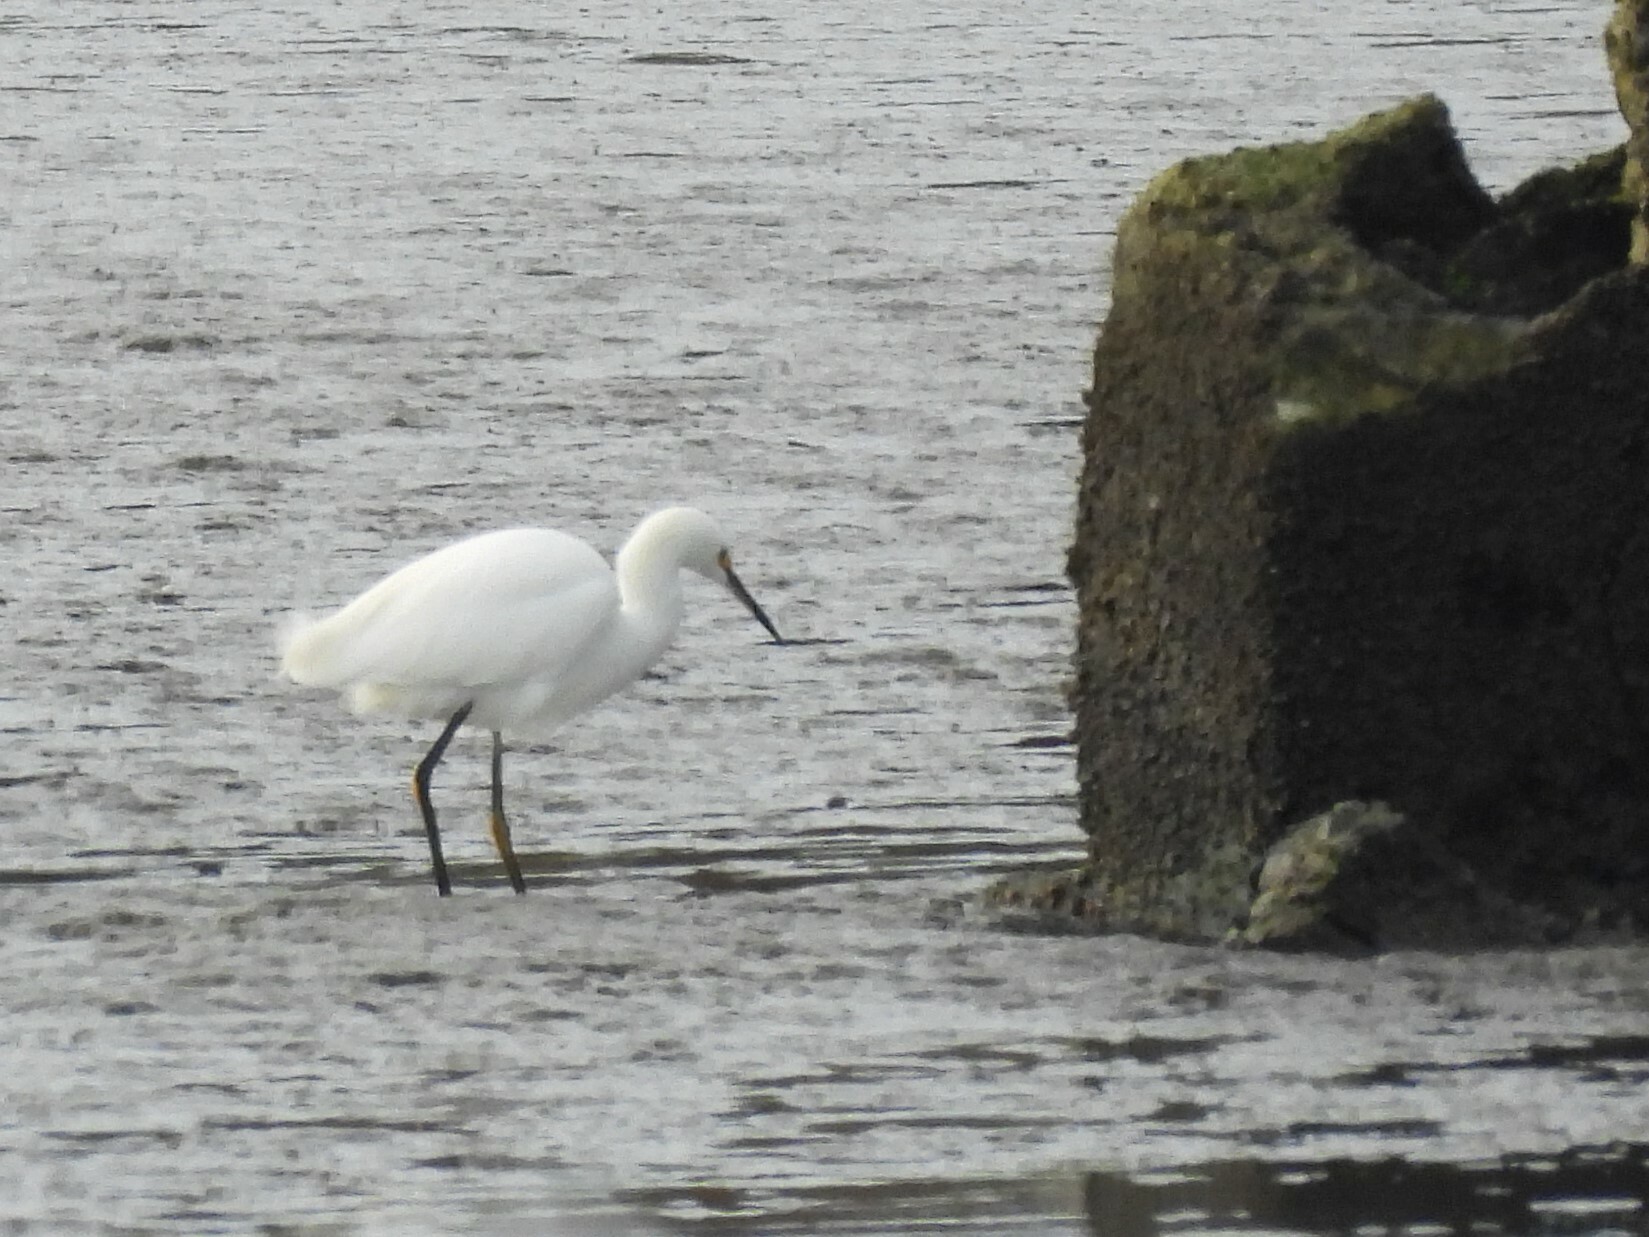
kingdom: Animalia
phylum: Chordata
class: Aves
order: Pelecaniformes
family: Ardeidae
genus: Egretta
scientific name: Egretta thula
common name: Snowy egret
